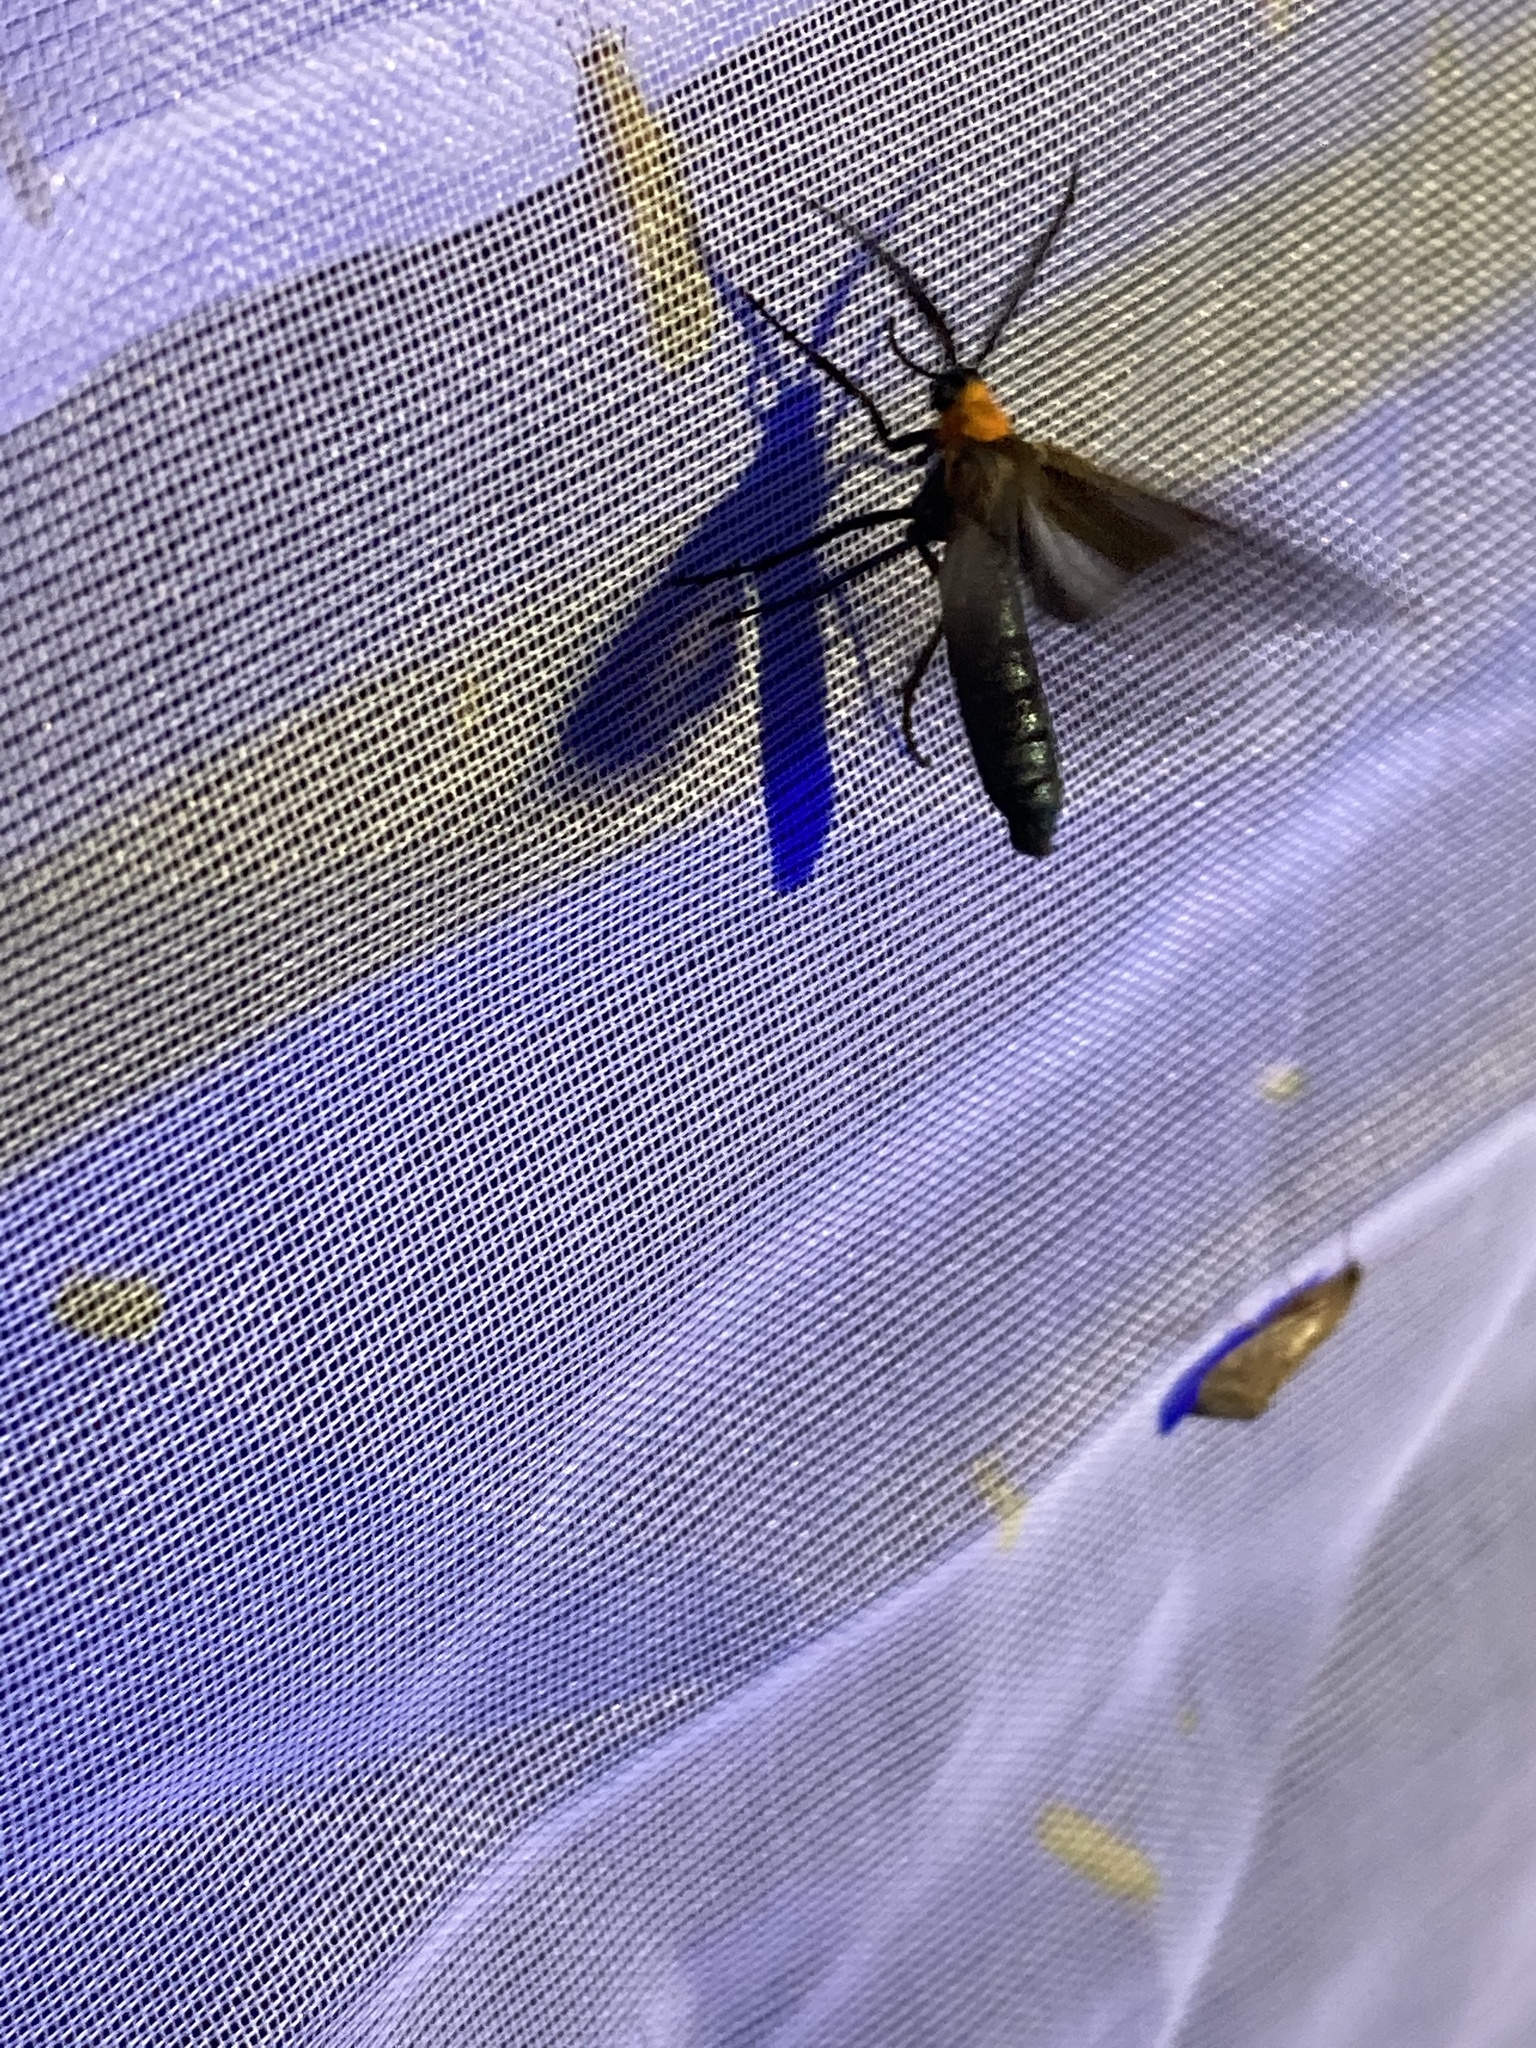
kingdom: Animalia
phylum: Arthropoda
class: Insecta
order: Lepidoptera
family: Erebidae
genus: Cisseps
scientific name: Cisseps fulvicollis
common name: Yellow-collared scape moth
